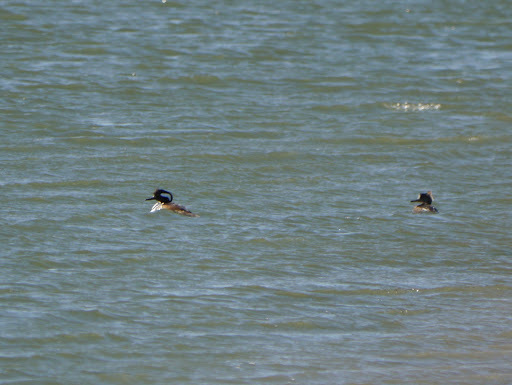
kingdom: Animalia
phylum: Chordata
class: Aves
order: Anseriformes
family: Anatidae
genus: Lophodytes
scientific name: Lophodytes cucullatus
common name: Hooded merganser
